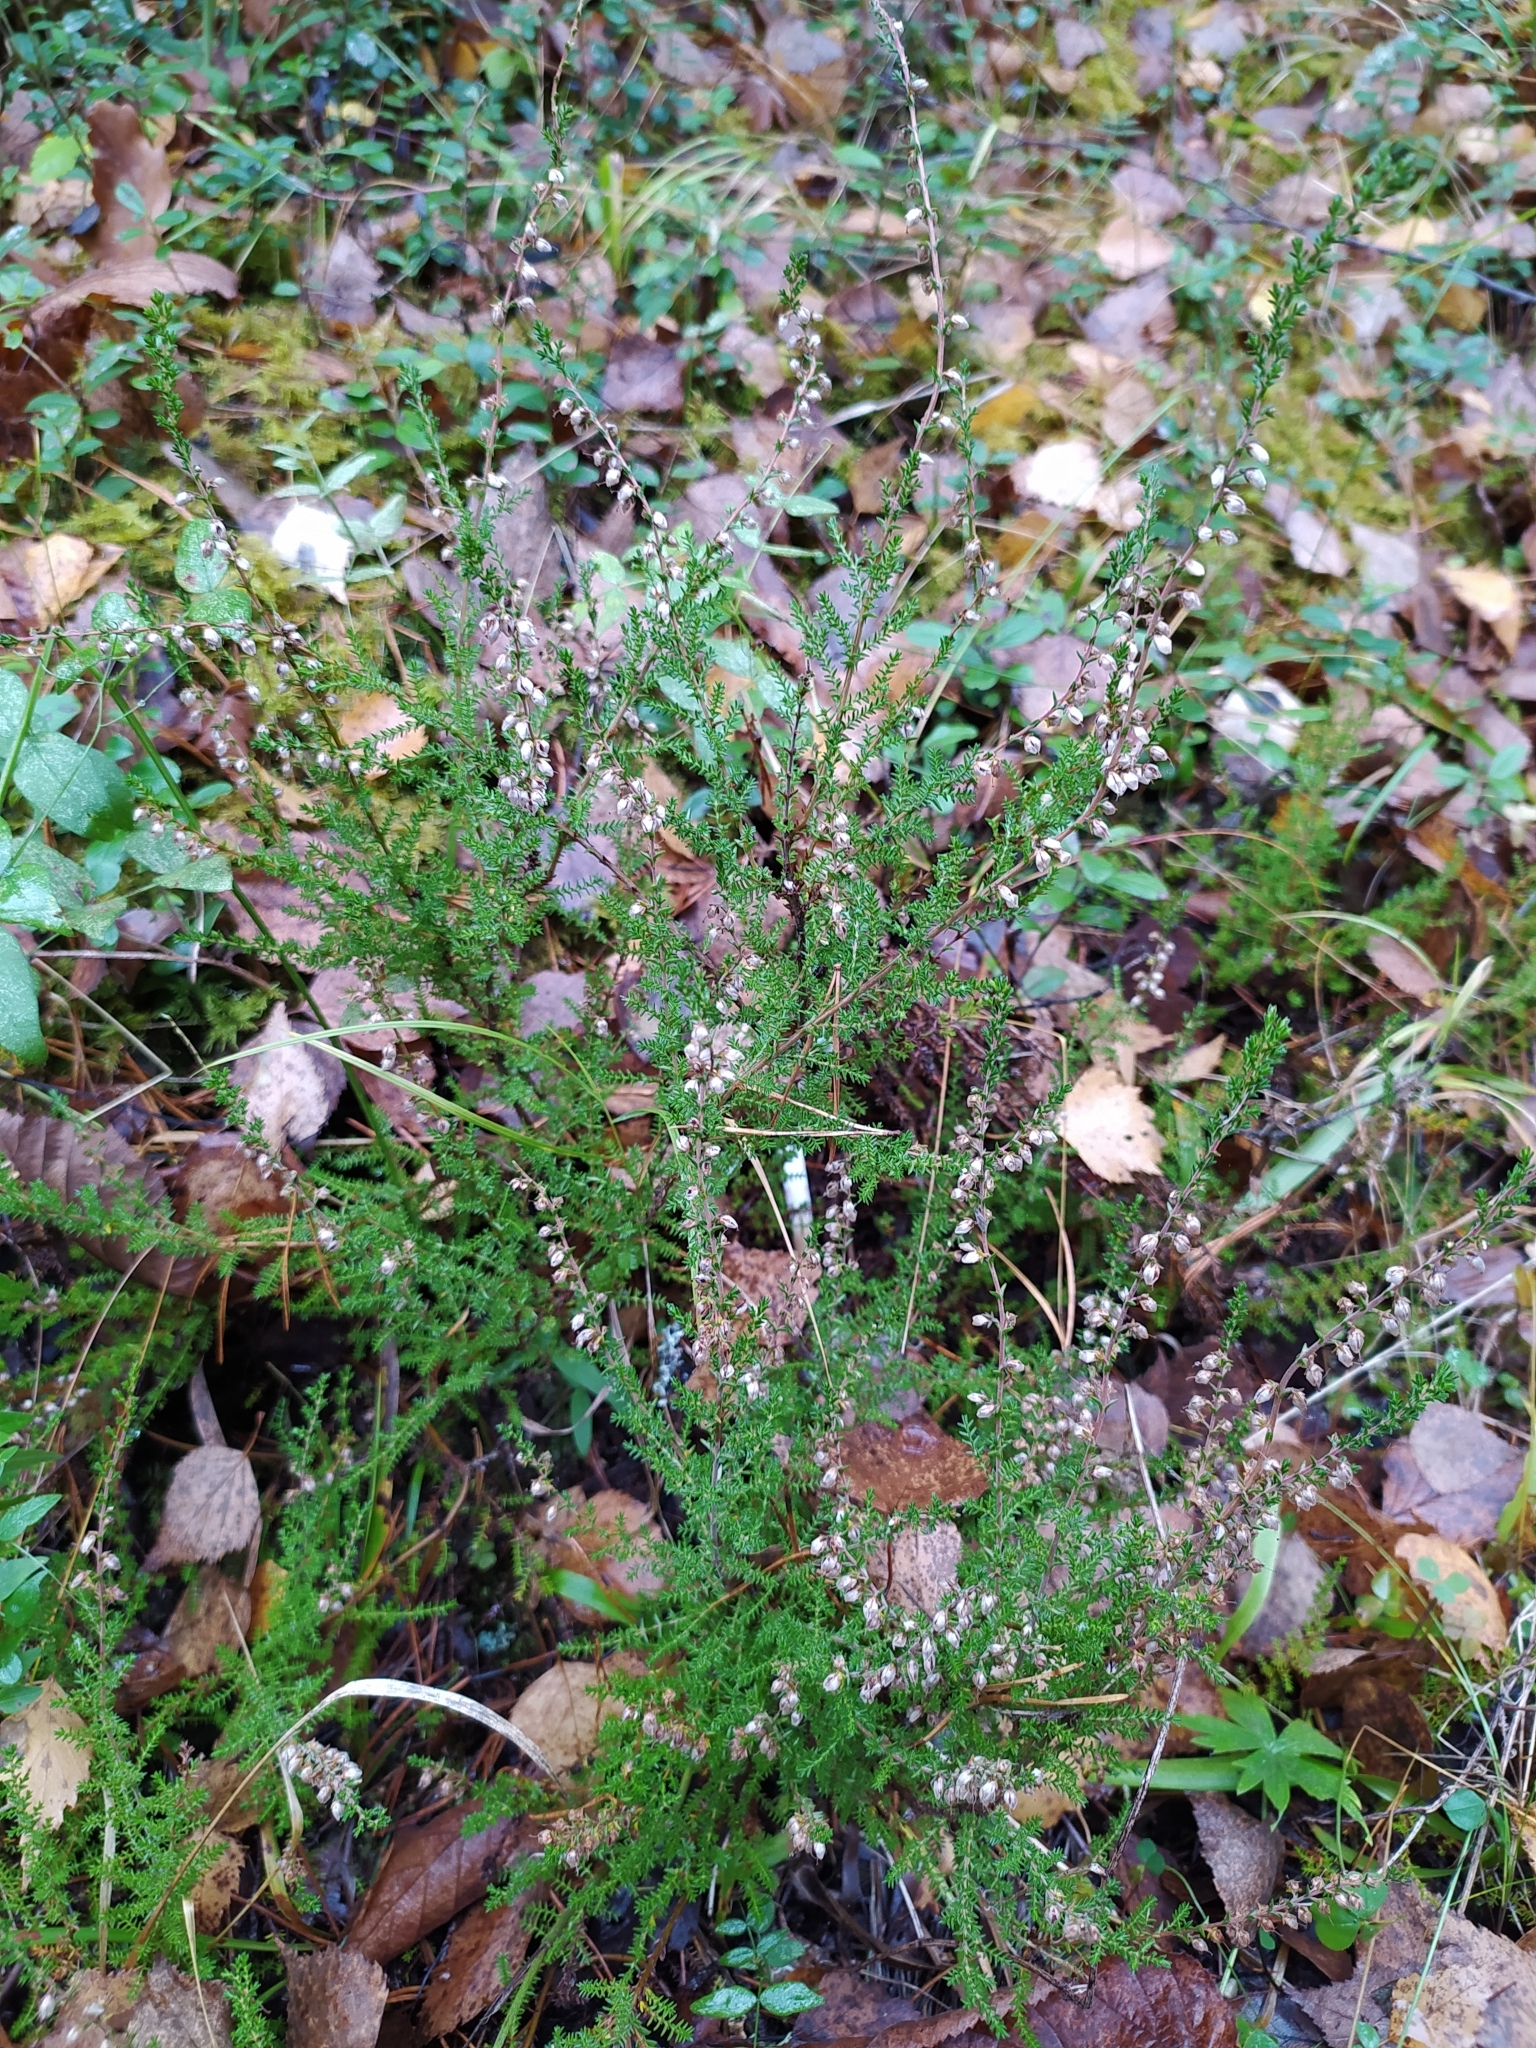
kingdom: Plantae
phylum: Tracheophyta
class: Magnoliopsida
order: Ericales
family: Ericaceae
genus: Calluna
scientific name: Calluna vulgaris
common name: Heather
